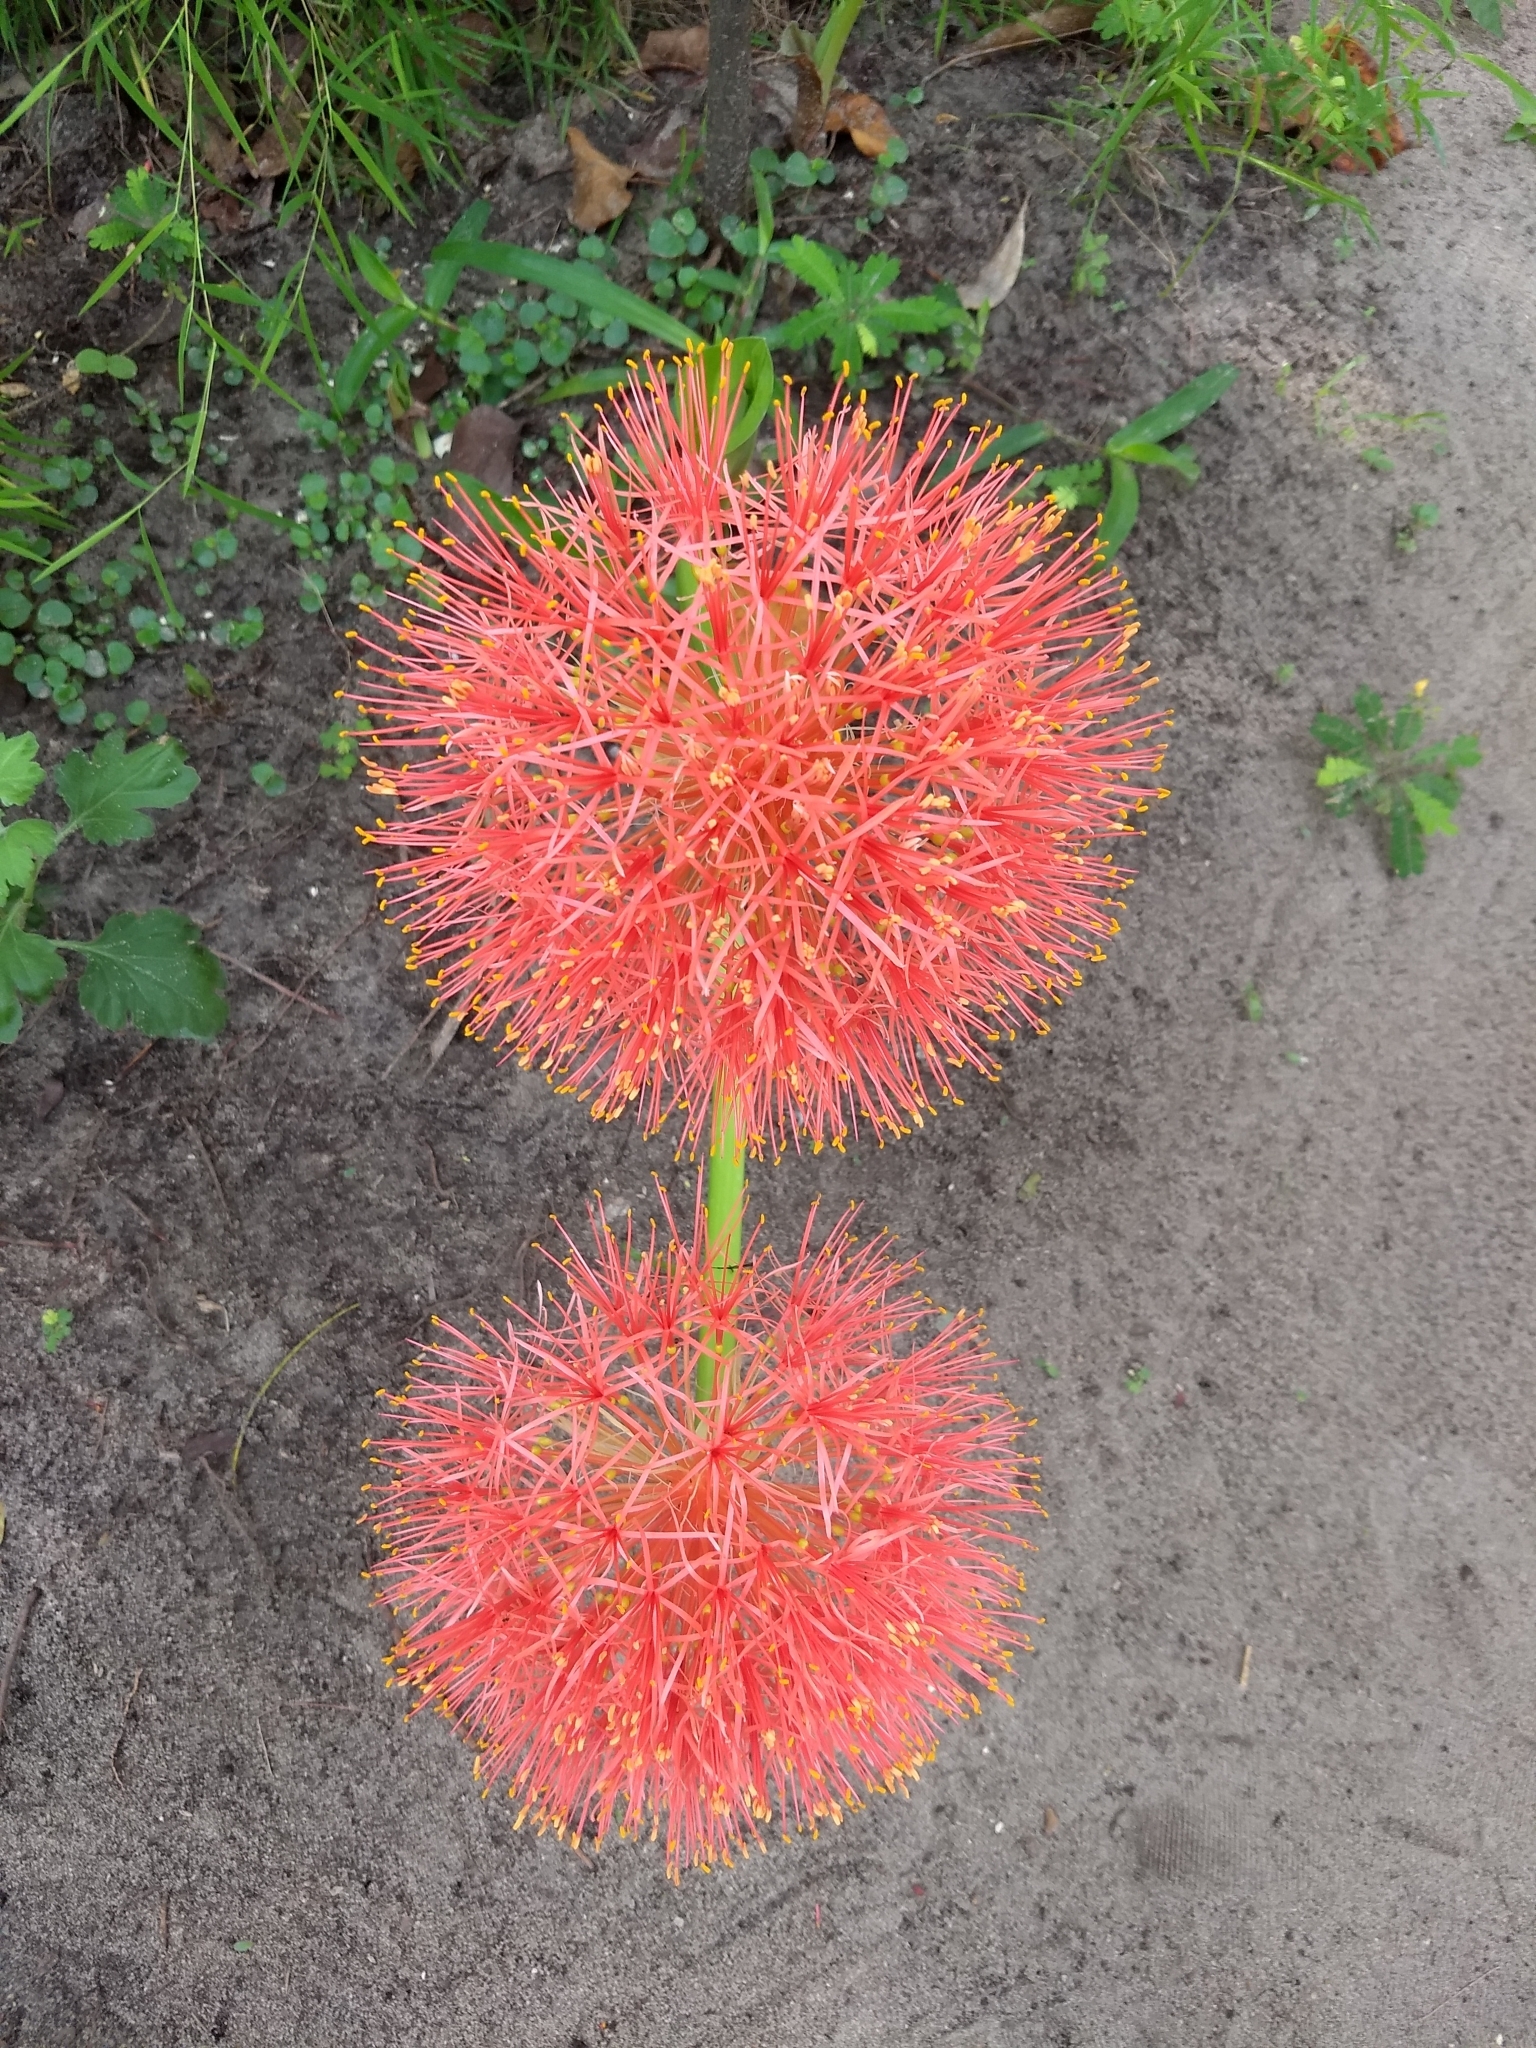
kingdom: Plantae
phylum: Tracheophyta
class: Liliopsida
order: Asparagales
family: Amaryllidaceae
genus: Scadoxus
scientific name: Scadoxus multiflorus
